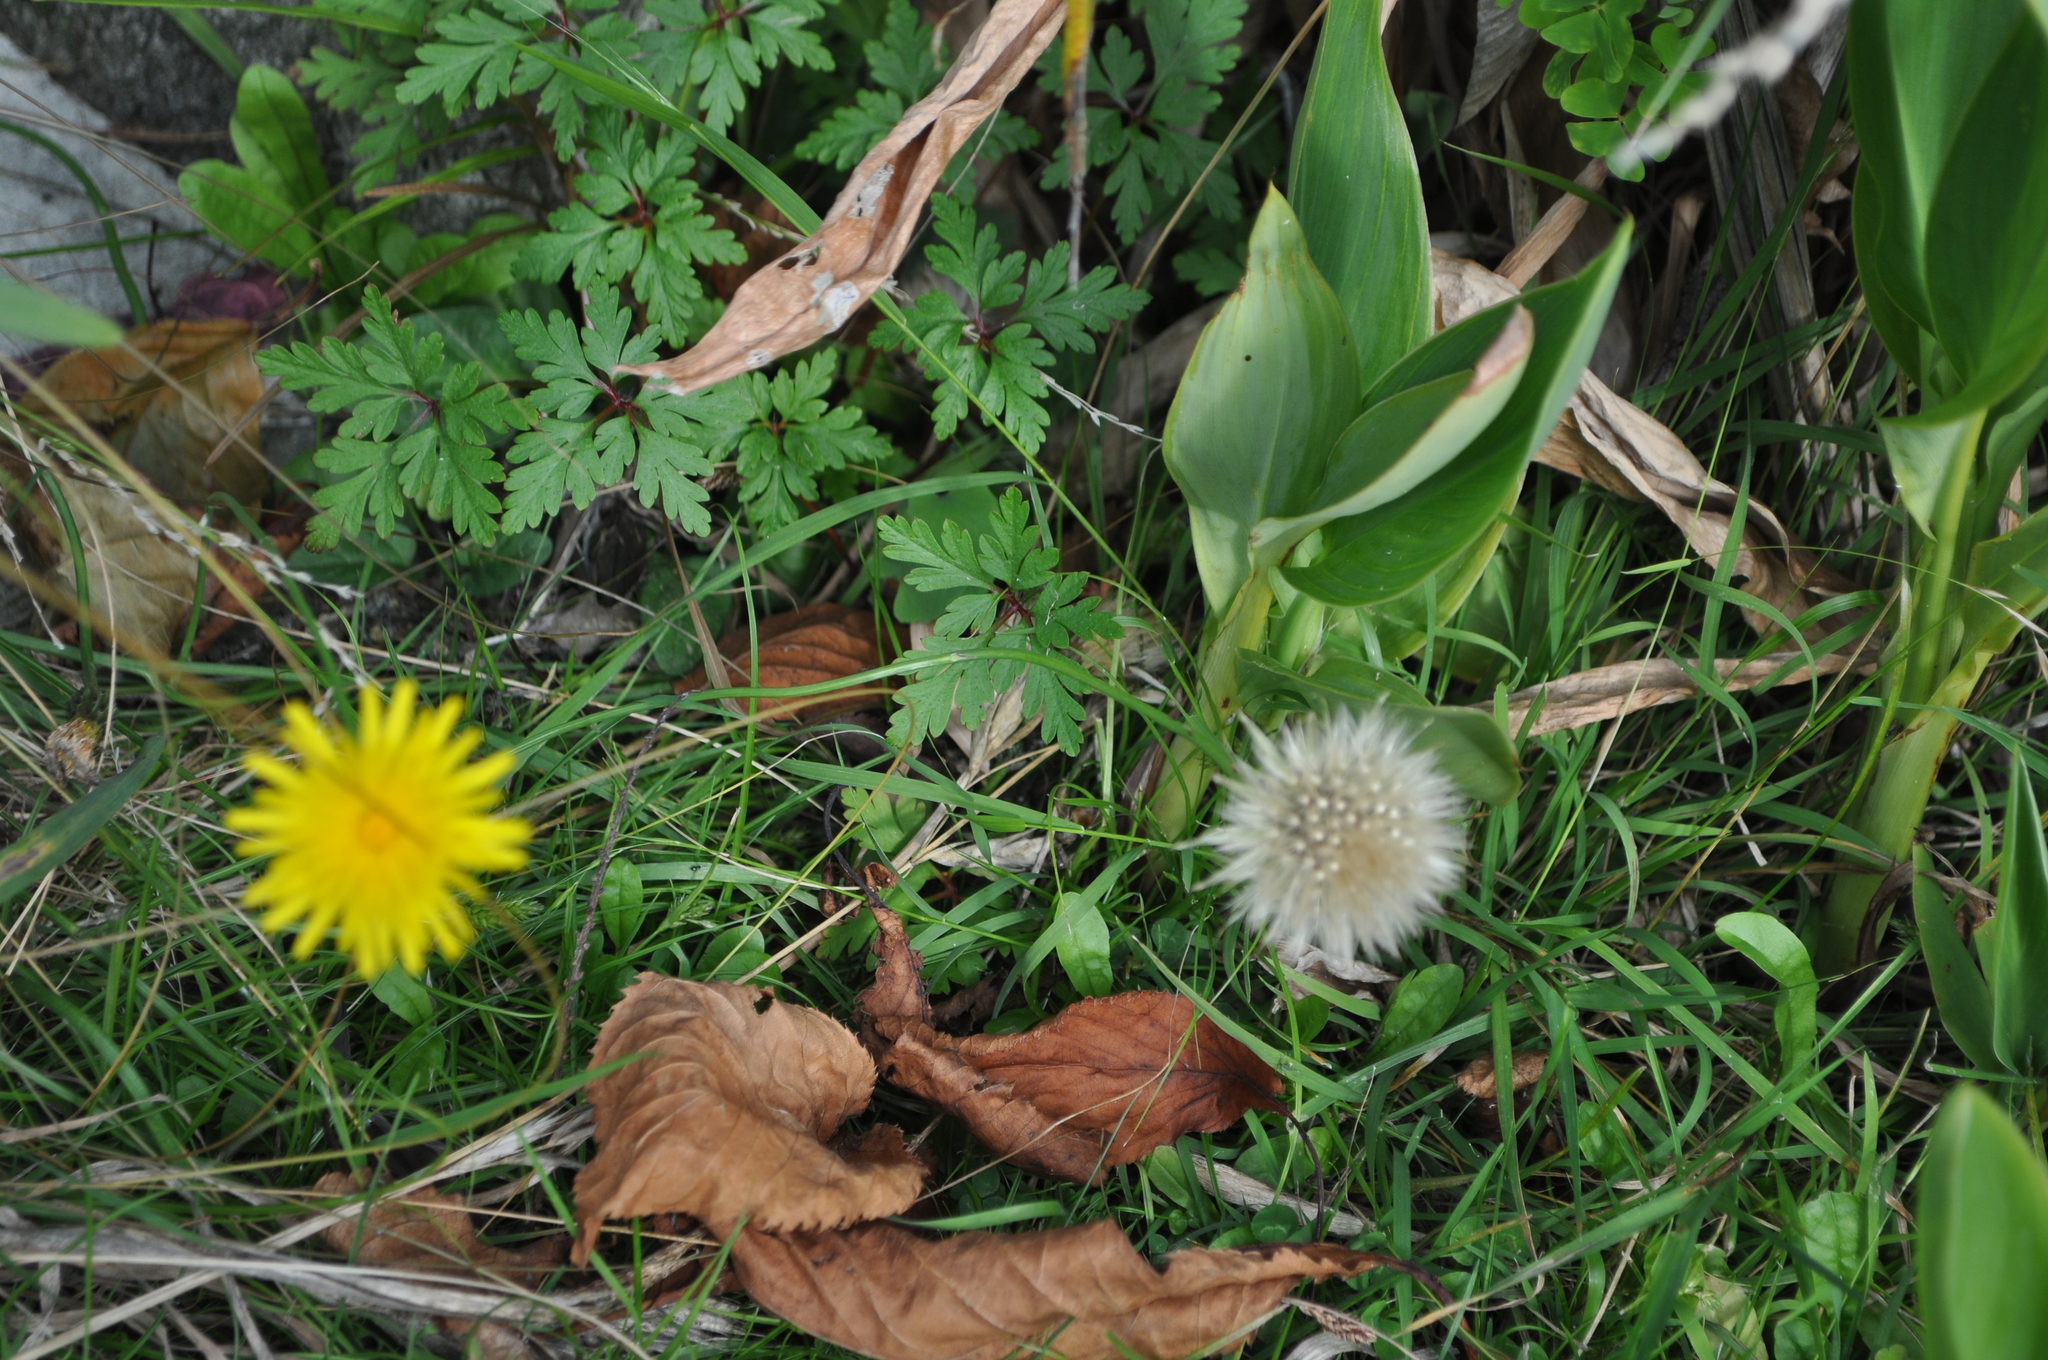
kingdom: Plantae
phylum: Tracheophyta
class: Magnoliopsida
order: Asterales
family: Asteraceae
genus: Taraxacum
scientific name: Taraxacum officinale
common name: Common dandelion
